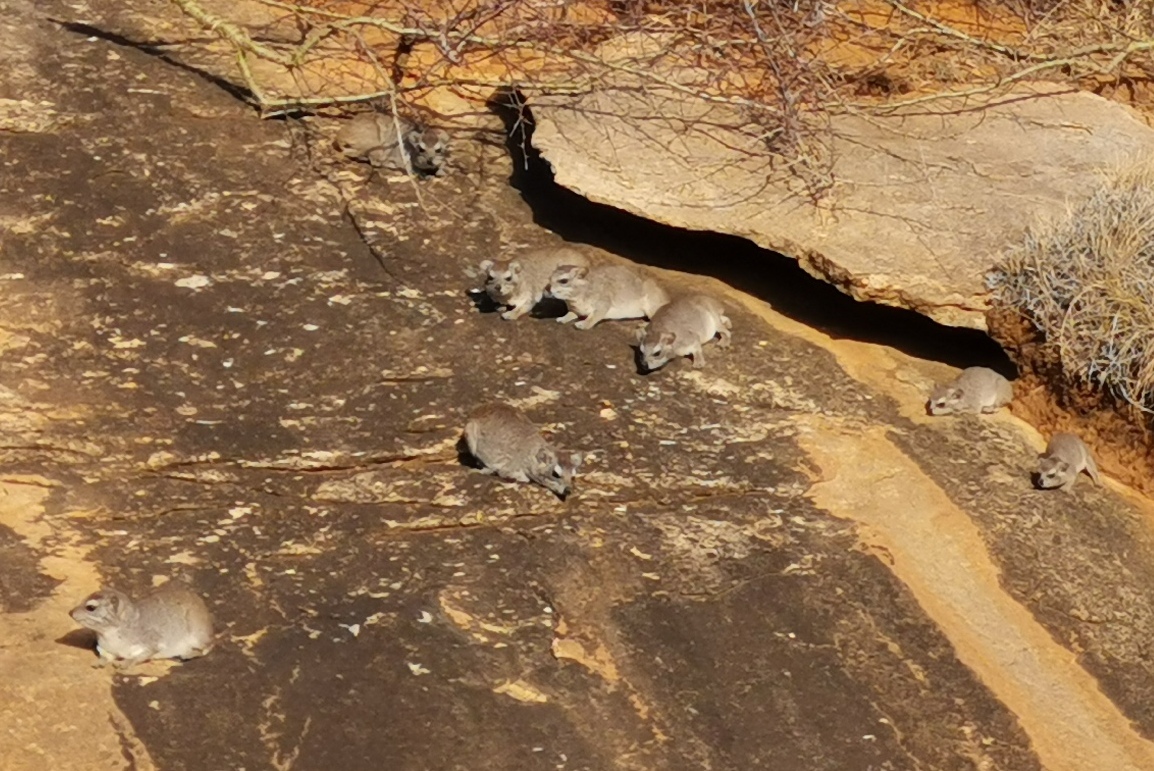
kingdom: Animalia
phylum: Chordata
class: Mammalia
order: Hyracoidea
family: Procaviidae
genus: Heterohyrax
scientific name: Heterohyrax brucei
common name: Bush hyrax
